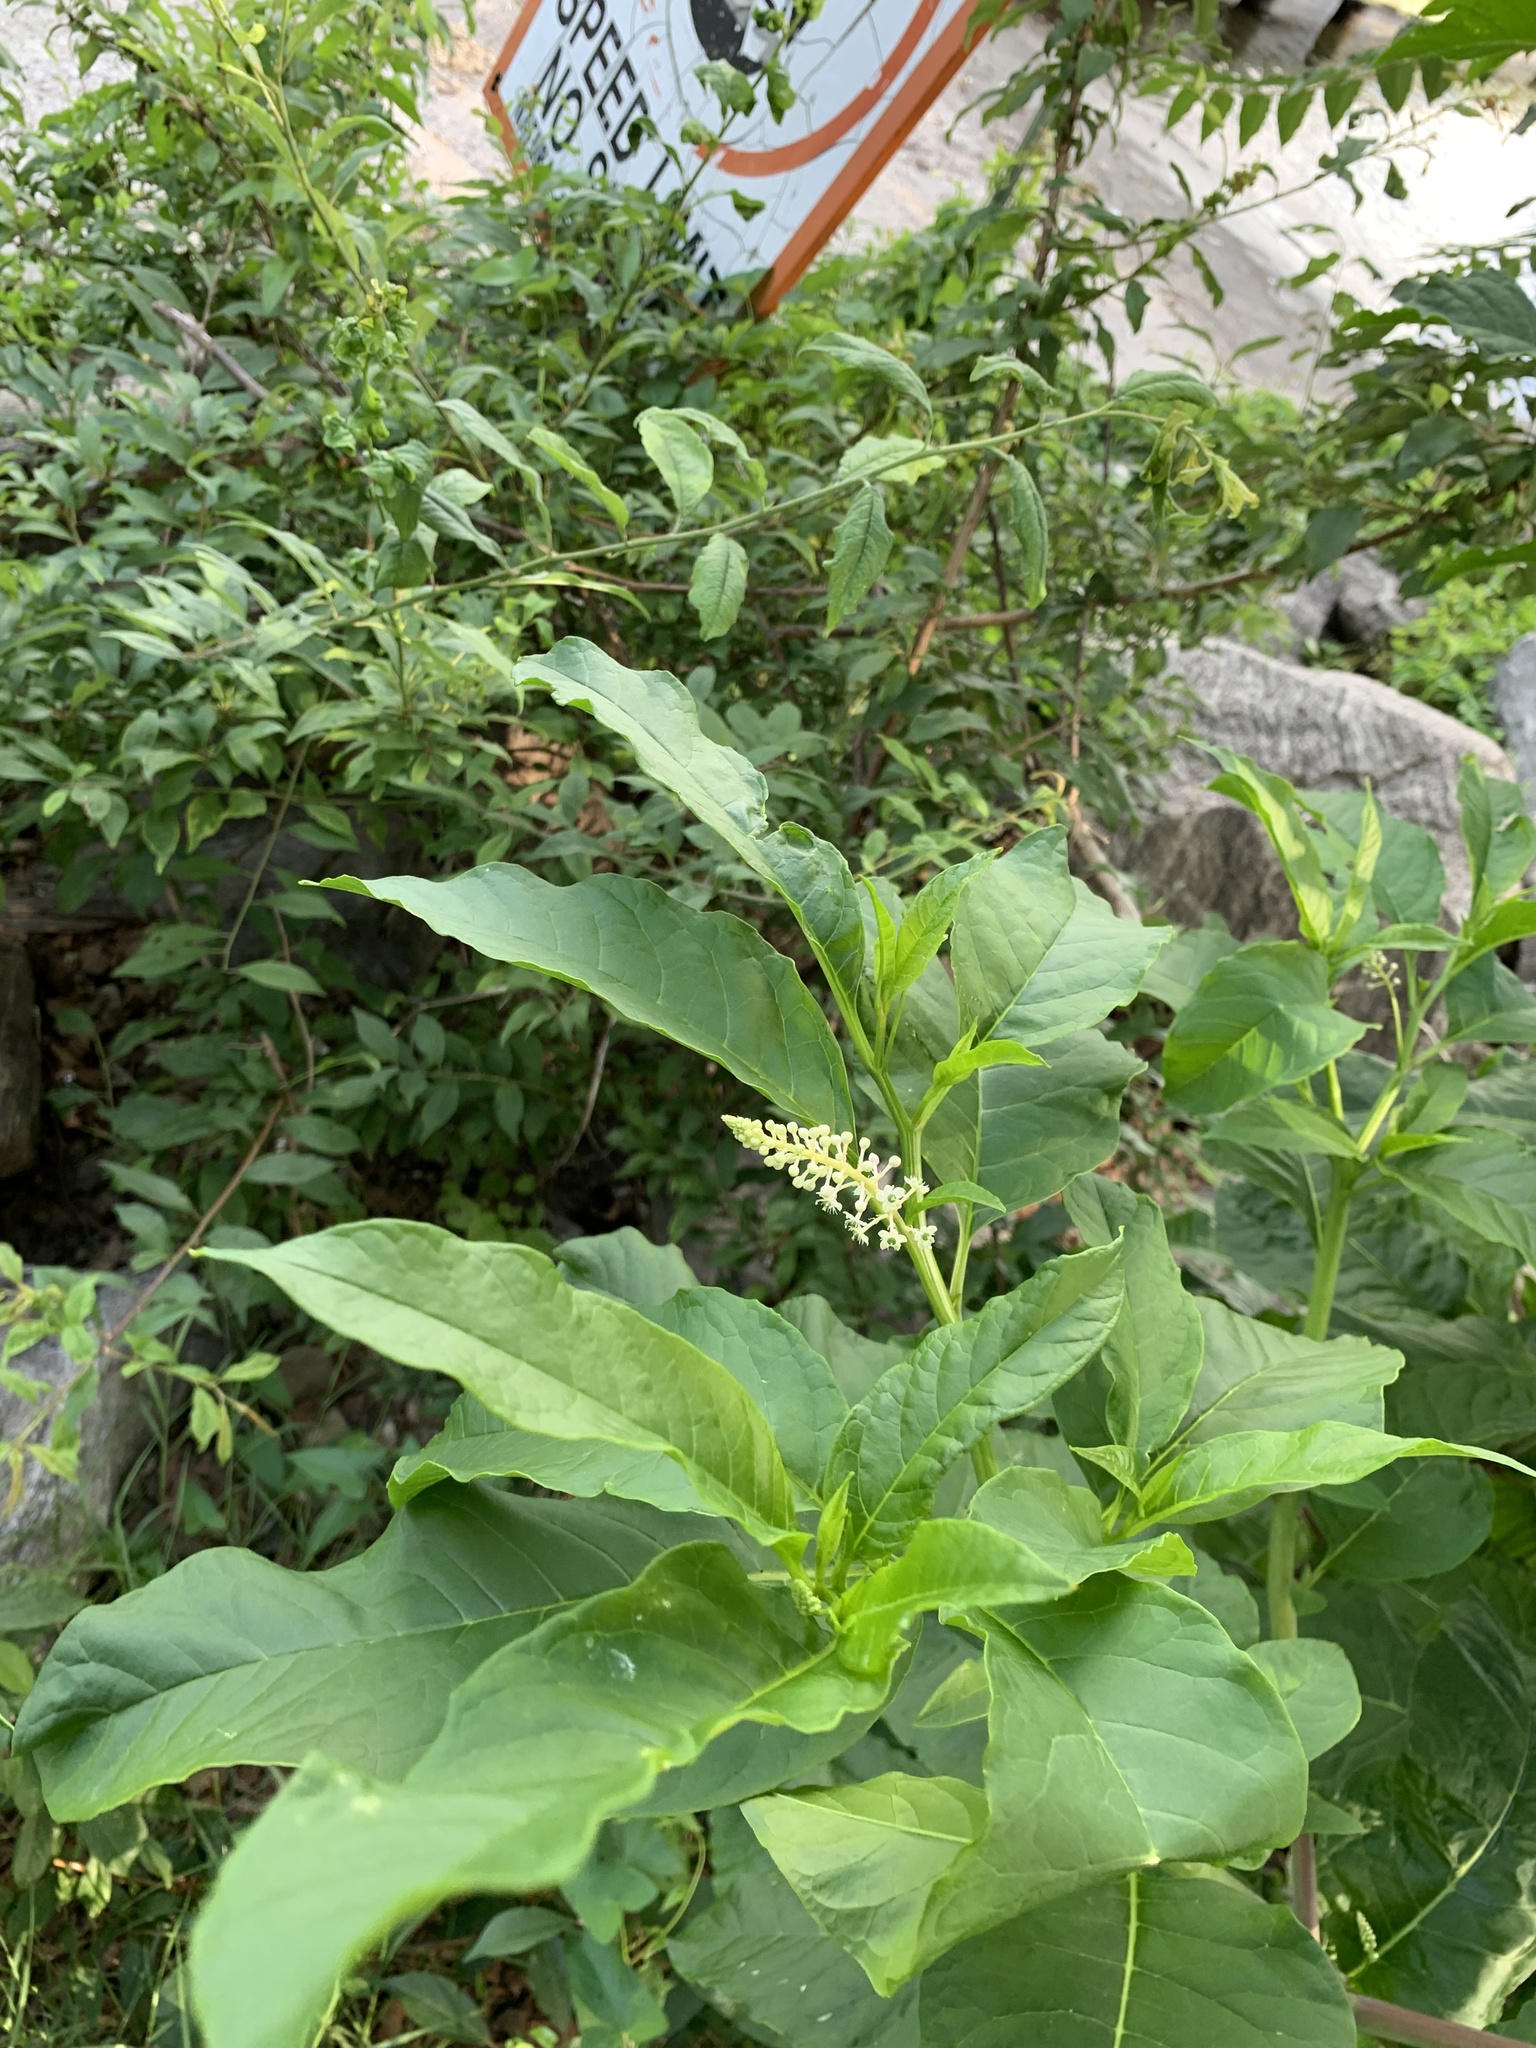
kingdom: Plantae
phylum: Tracheophyta
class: Magnoliopsida
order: Caryophyllales
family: Phytolaccaceae
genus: Phytolacca
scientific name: Phytolacca americana
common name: American pokeweed
